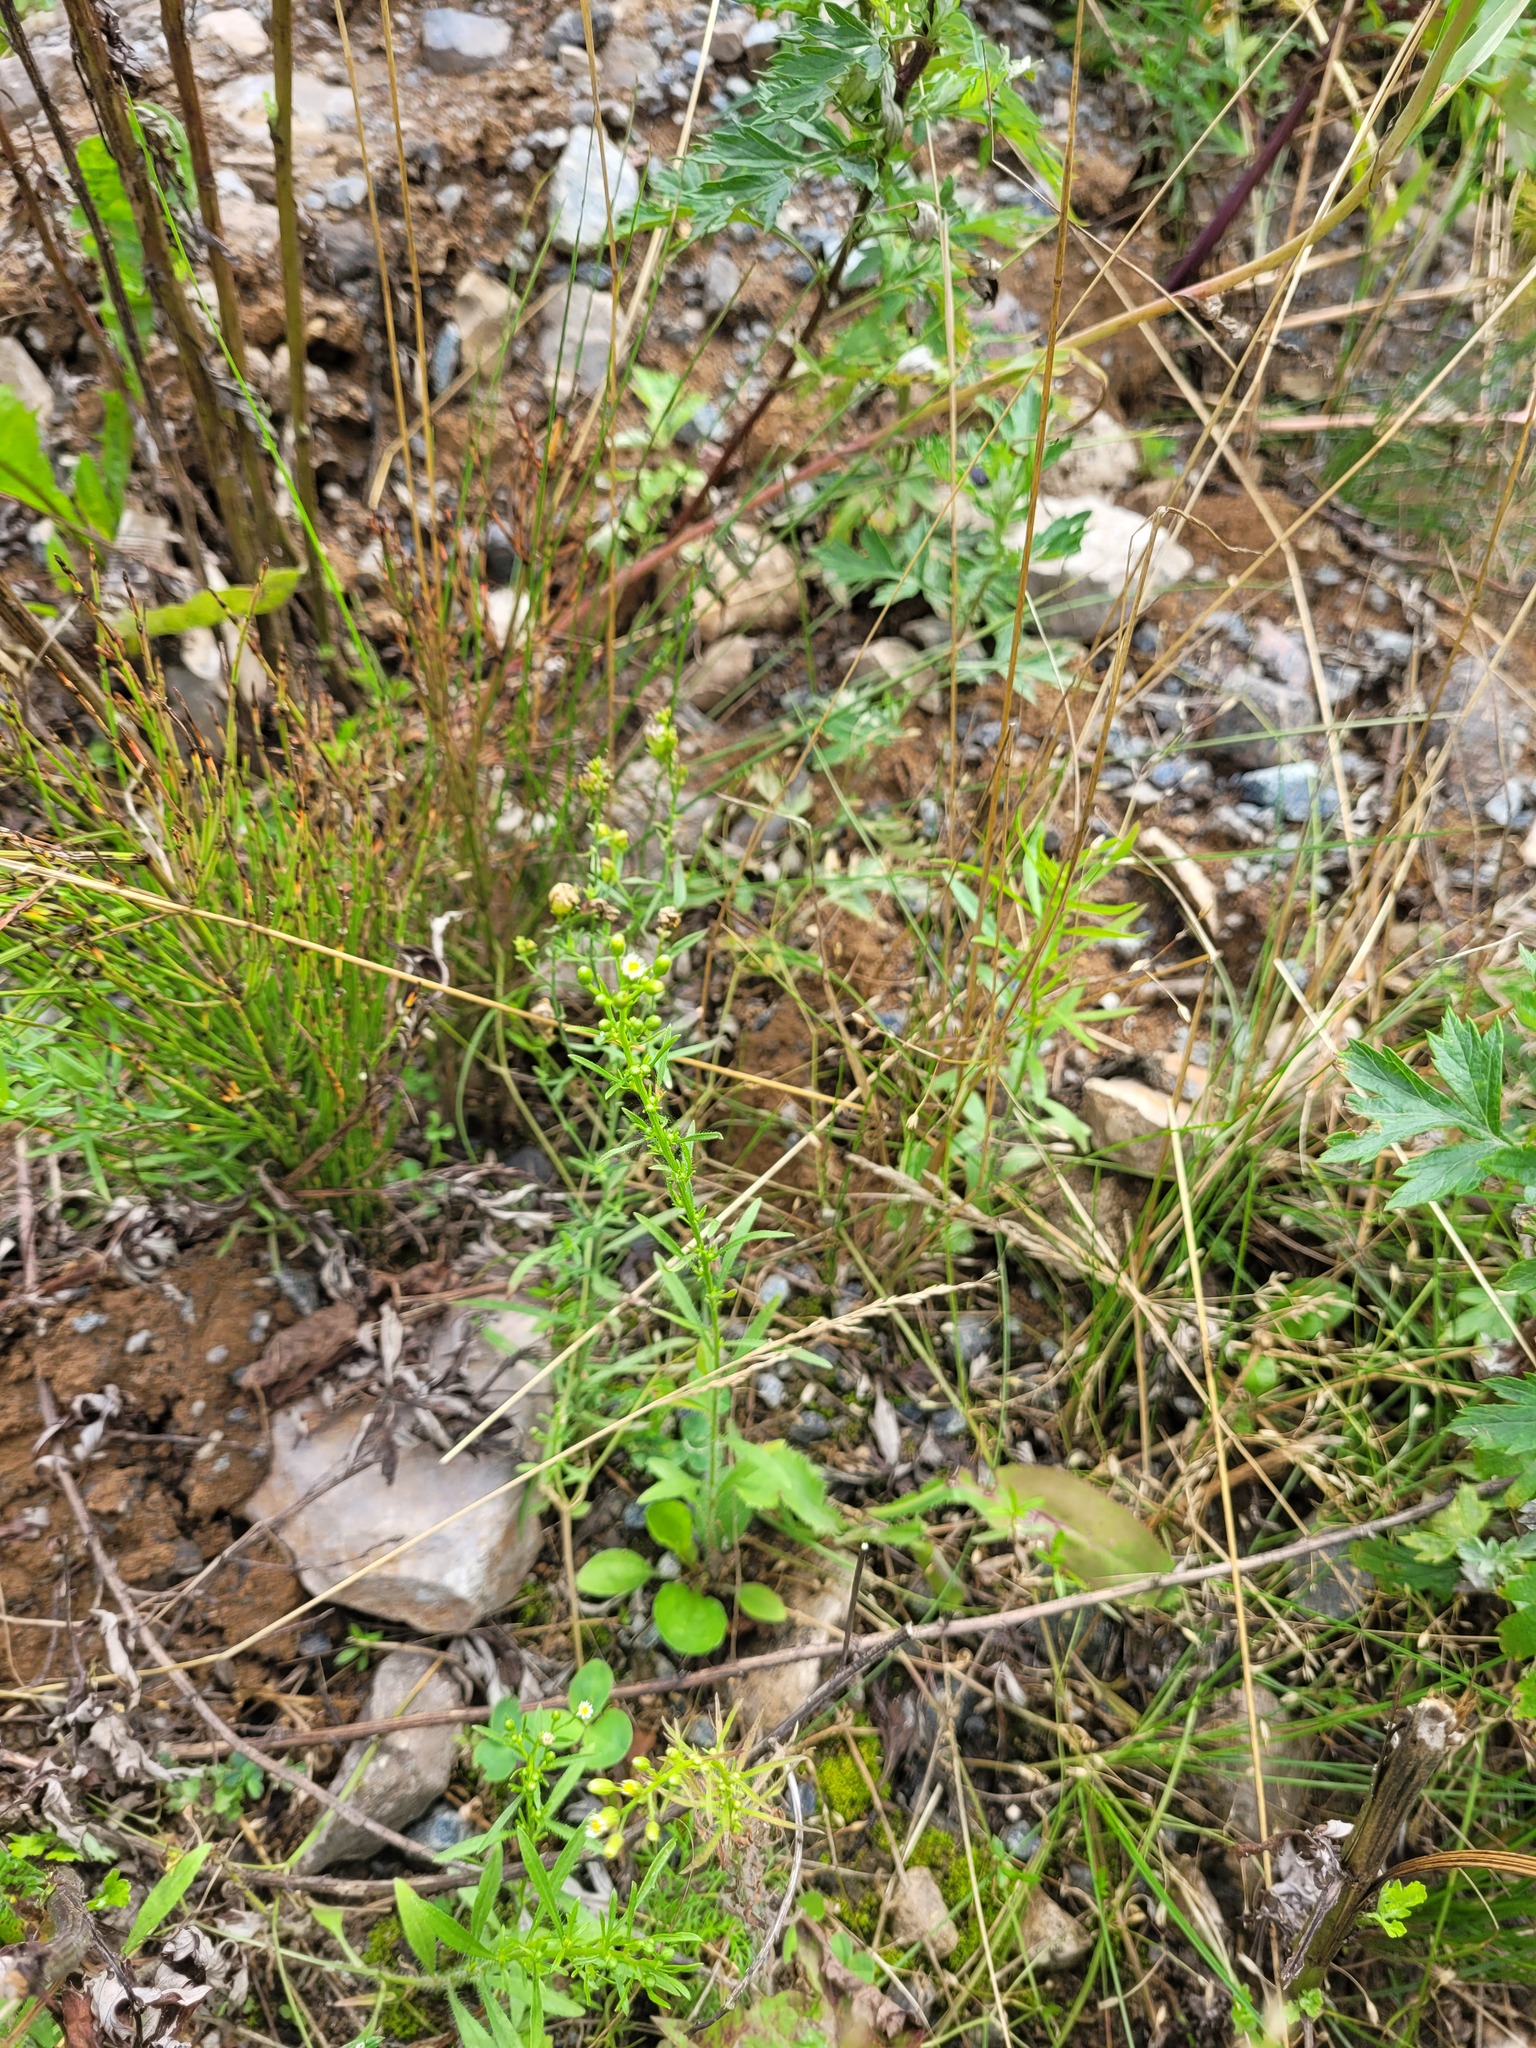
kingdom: Plantae
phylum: Tracheophyta
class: Magnoliopsida
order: Asterales
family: Asteraceae
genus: Erigeron
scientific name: Erigeron canadensis
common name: Canadian fleabane
